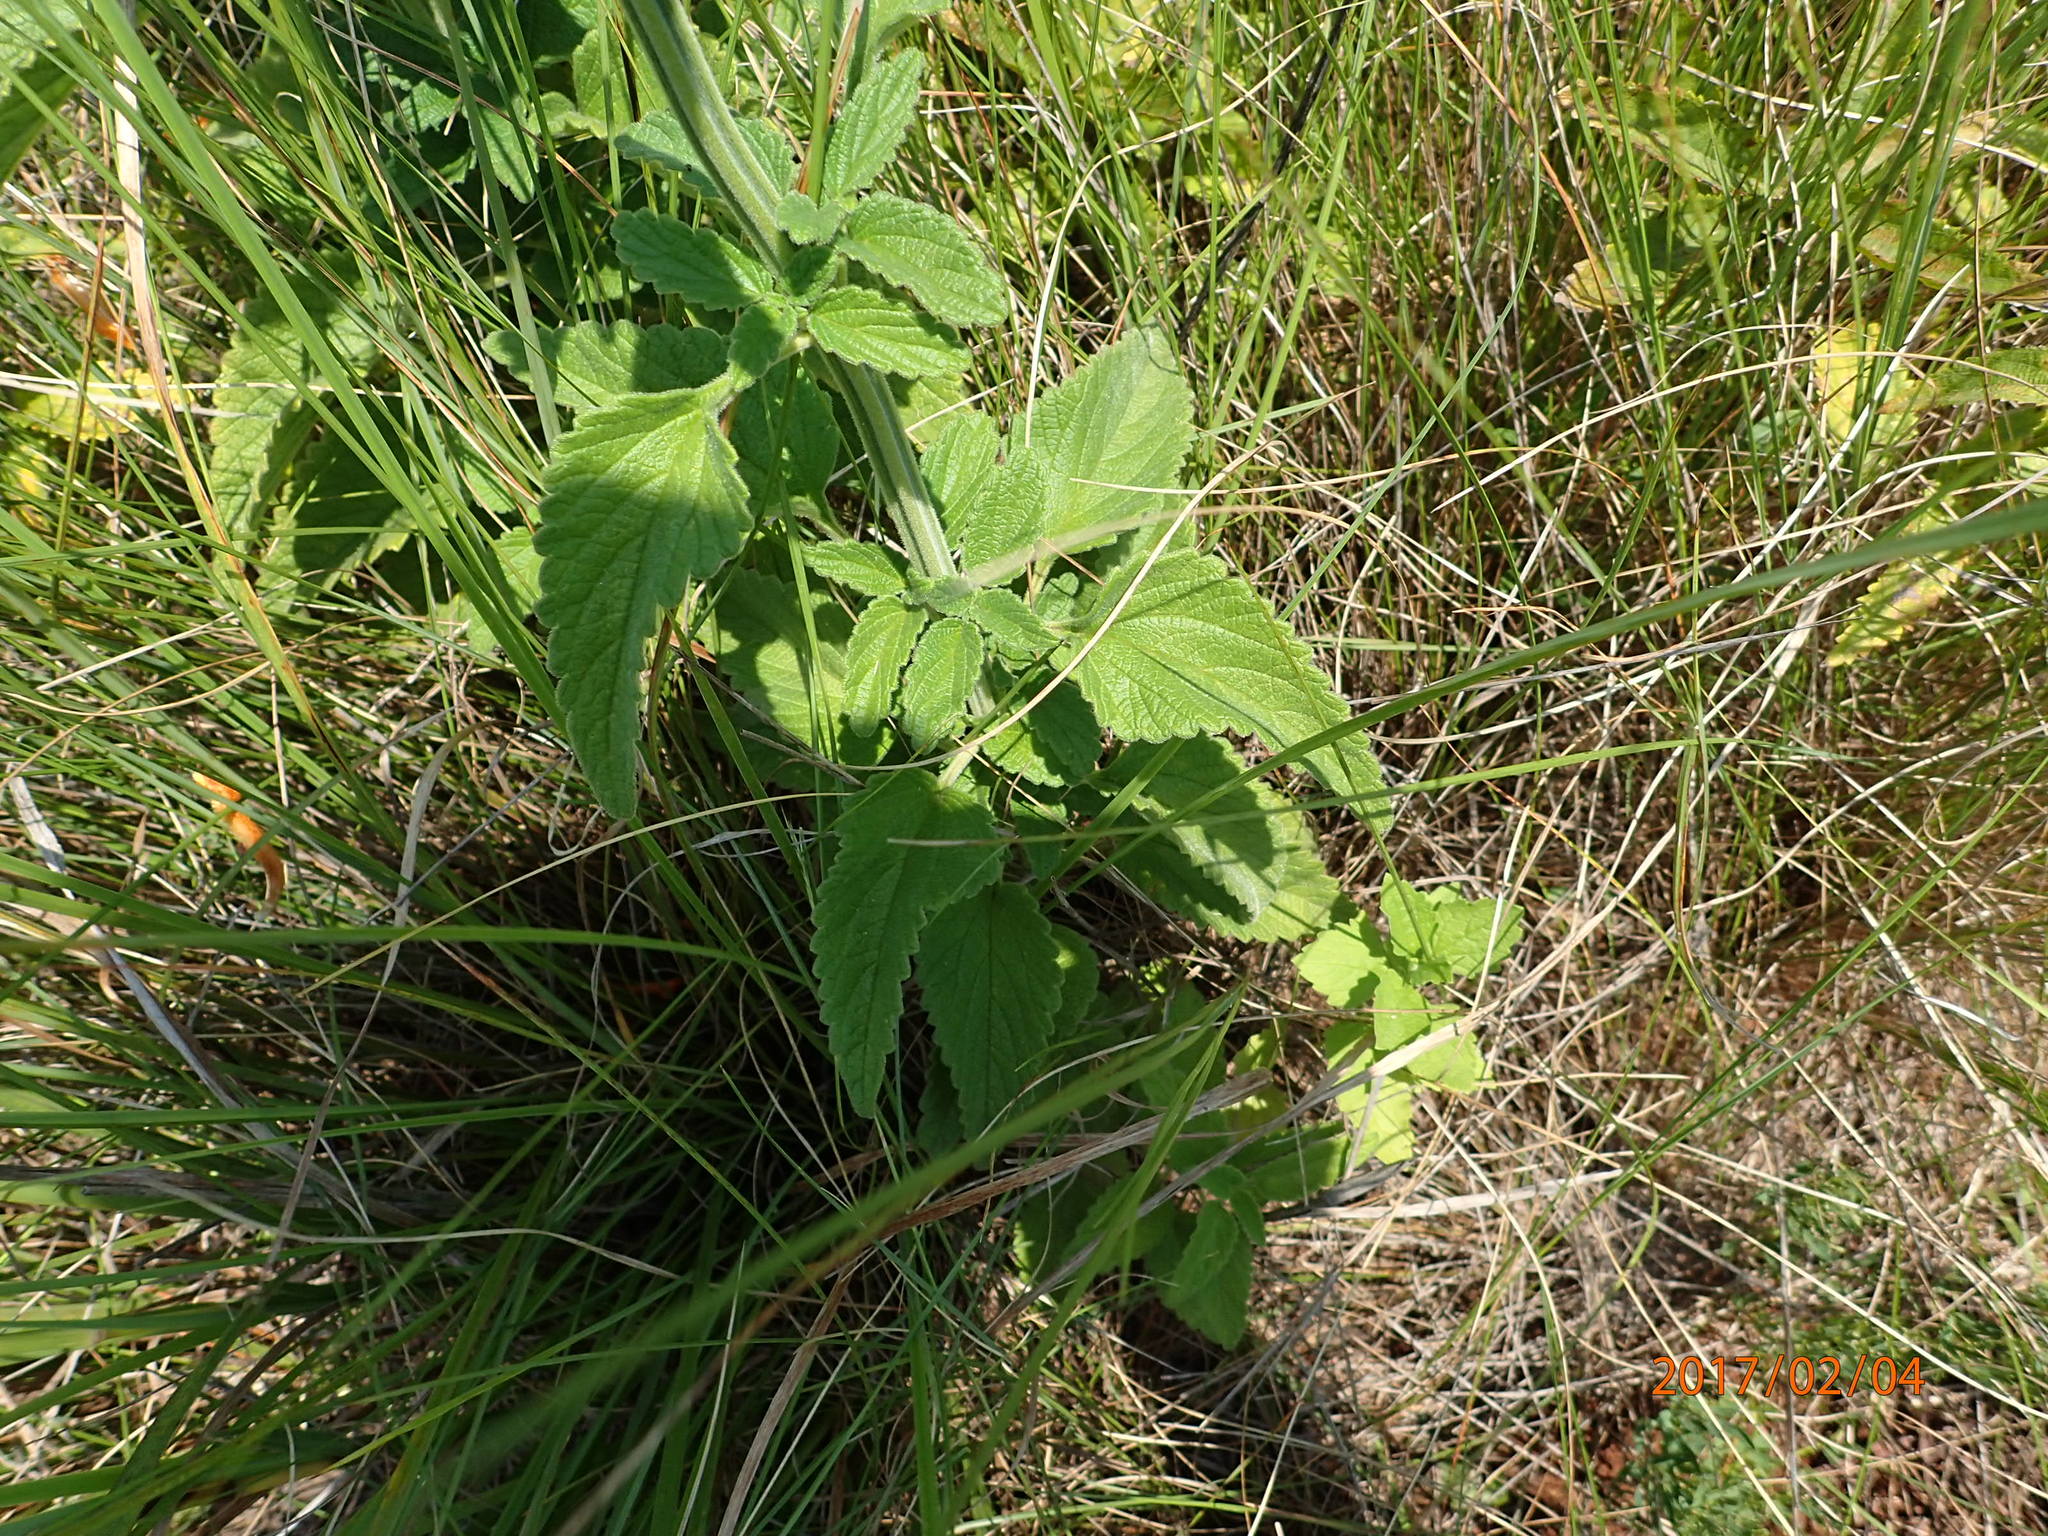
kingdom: Plantae
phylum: Tracheophyta
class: Magnoliopsida
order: Lamiales
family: Lamiaceae
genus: Leonotis
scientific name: Leonotis ocymifolia
